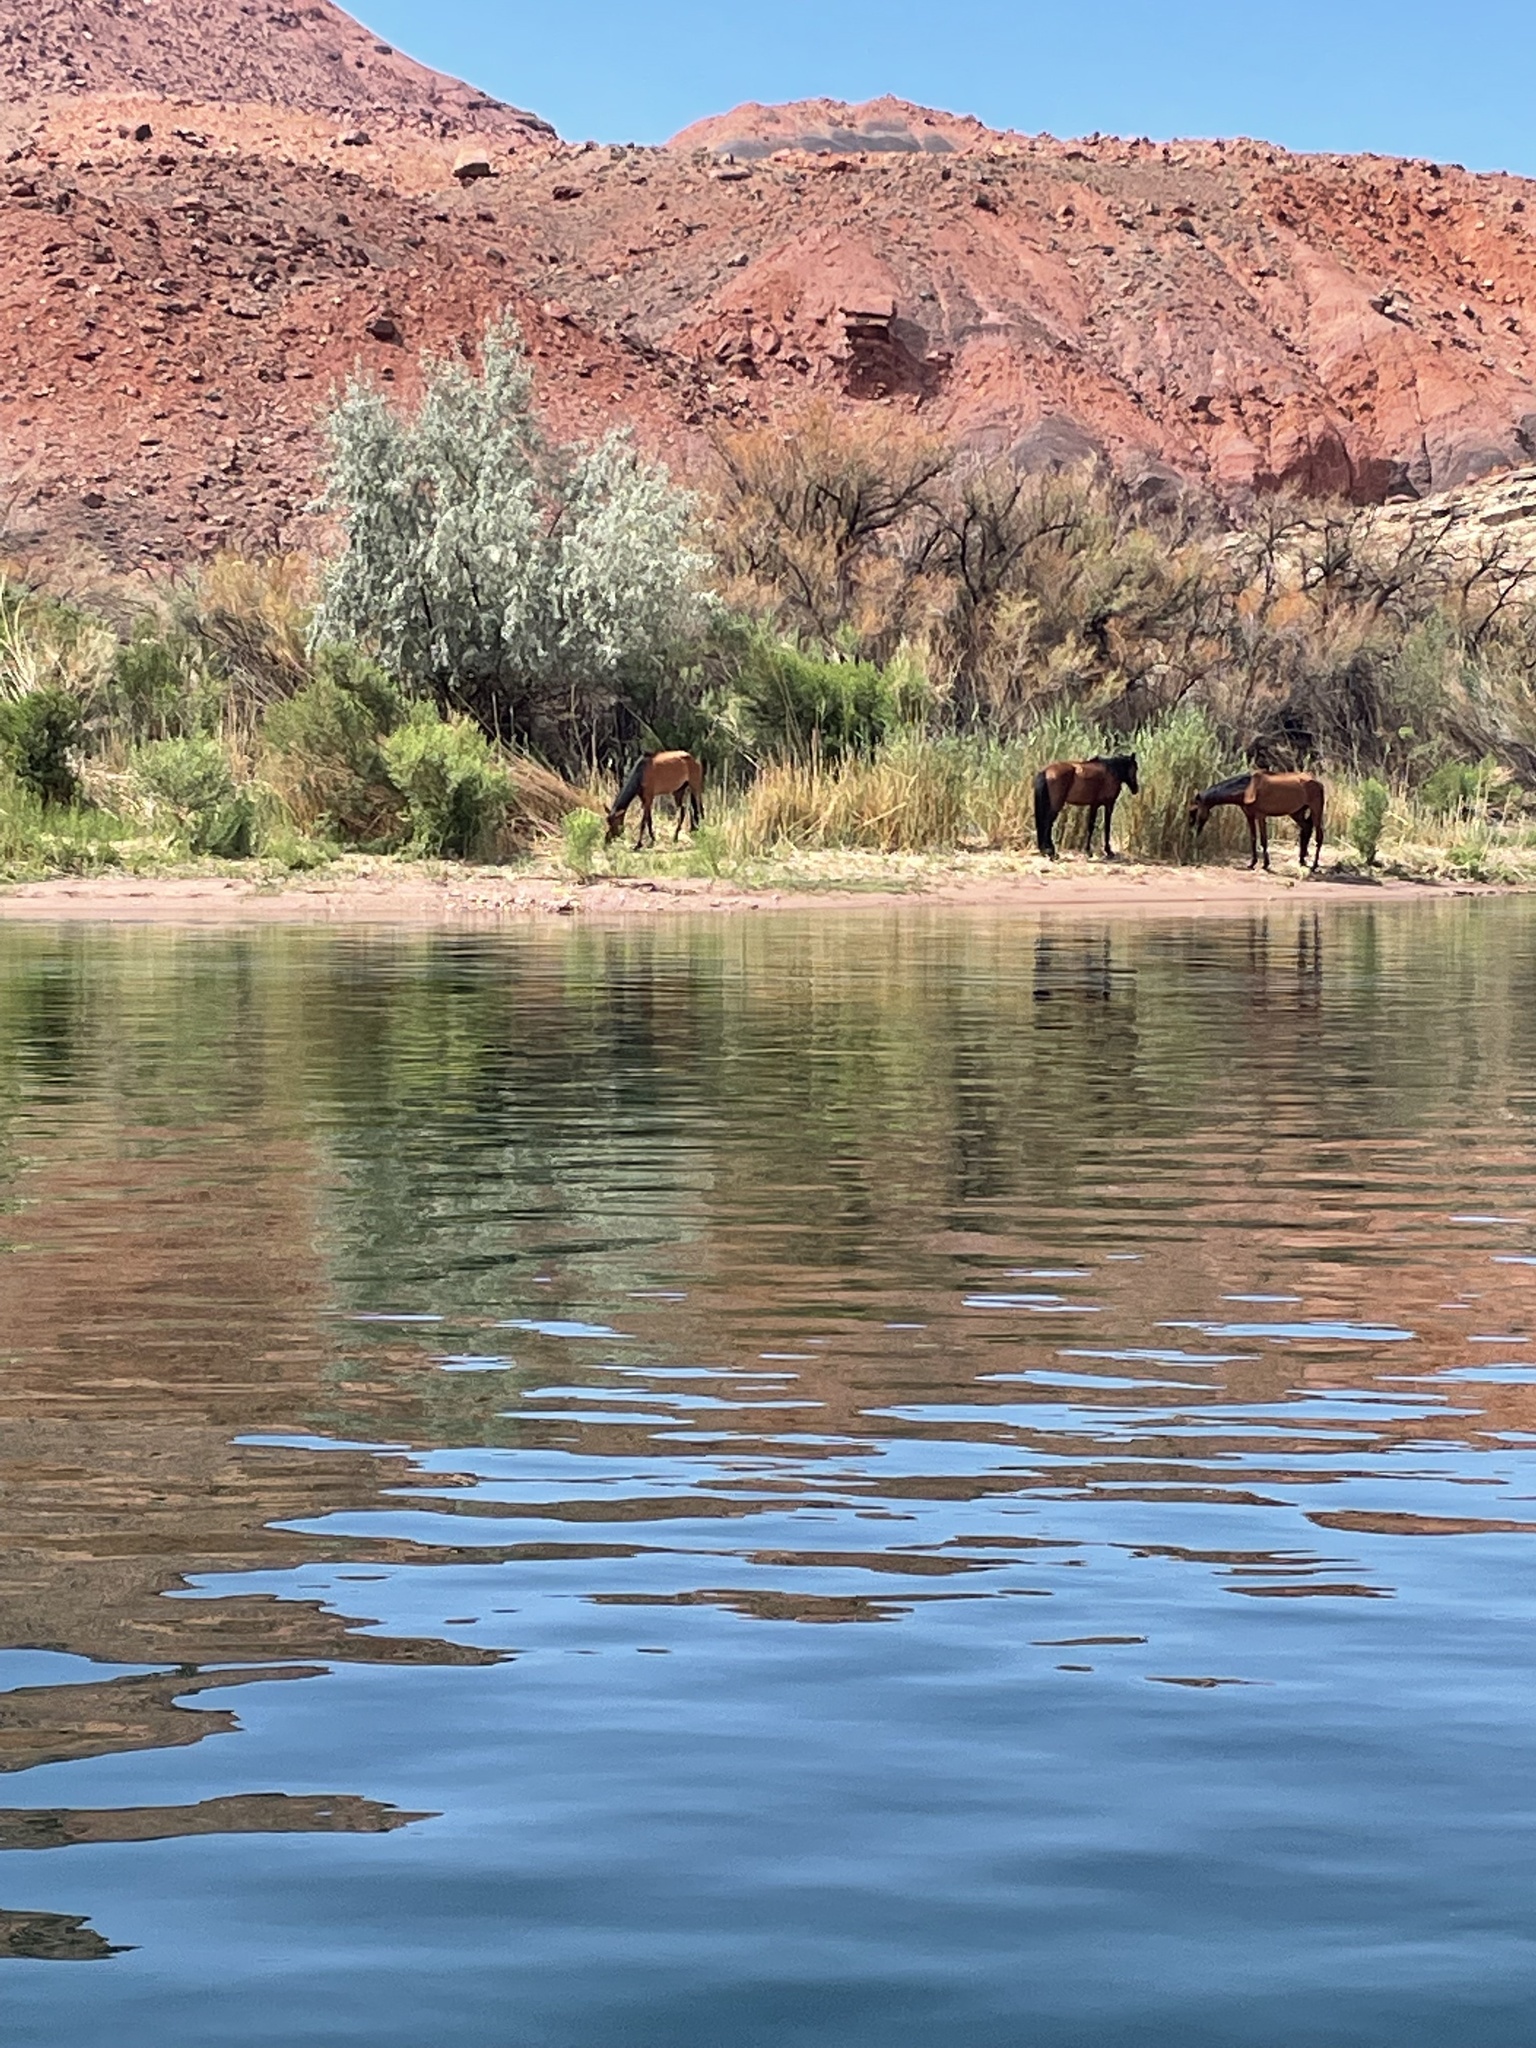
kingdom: Animalia
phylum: Chordata
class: Mammalia
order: Perissodactyla
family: Equidae
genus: Equus
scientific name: Equus caballus
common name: Horse
